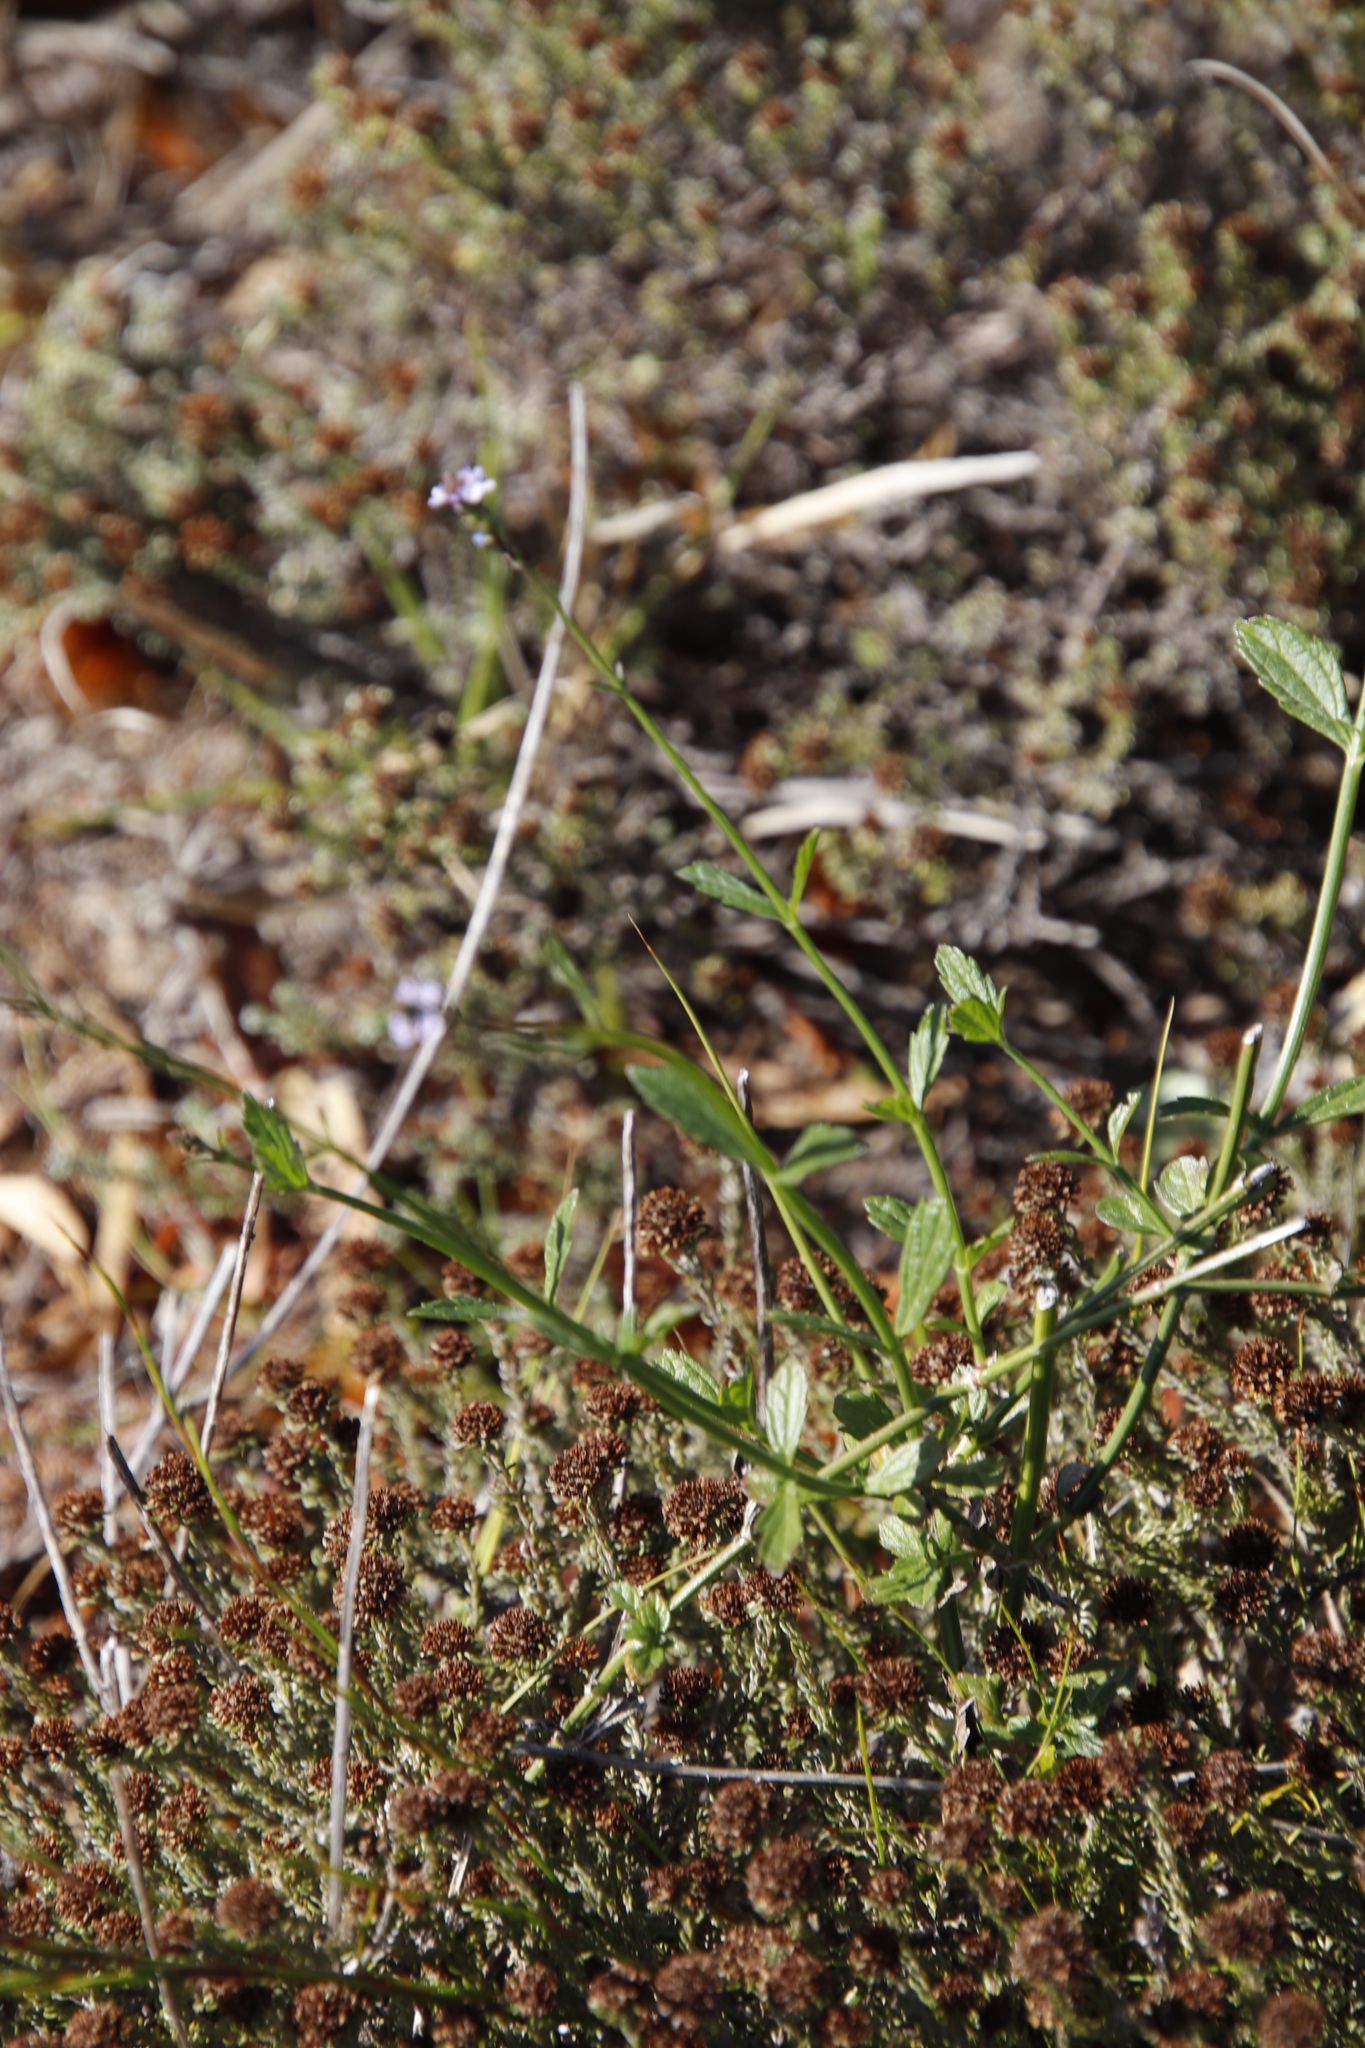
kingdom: Plantae
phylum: Tracheophyta
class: Magnoliopsida
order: Lamiales
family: Verbenaceae
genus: Verbena
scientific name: Verbena litoralis
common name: Seashore vervain
